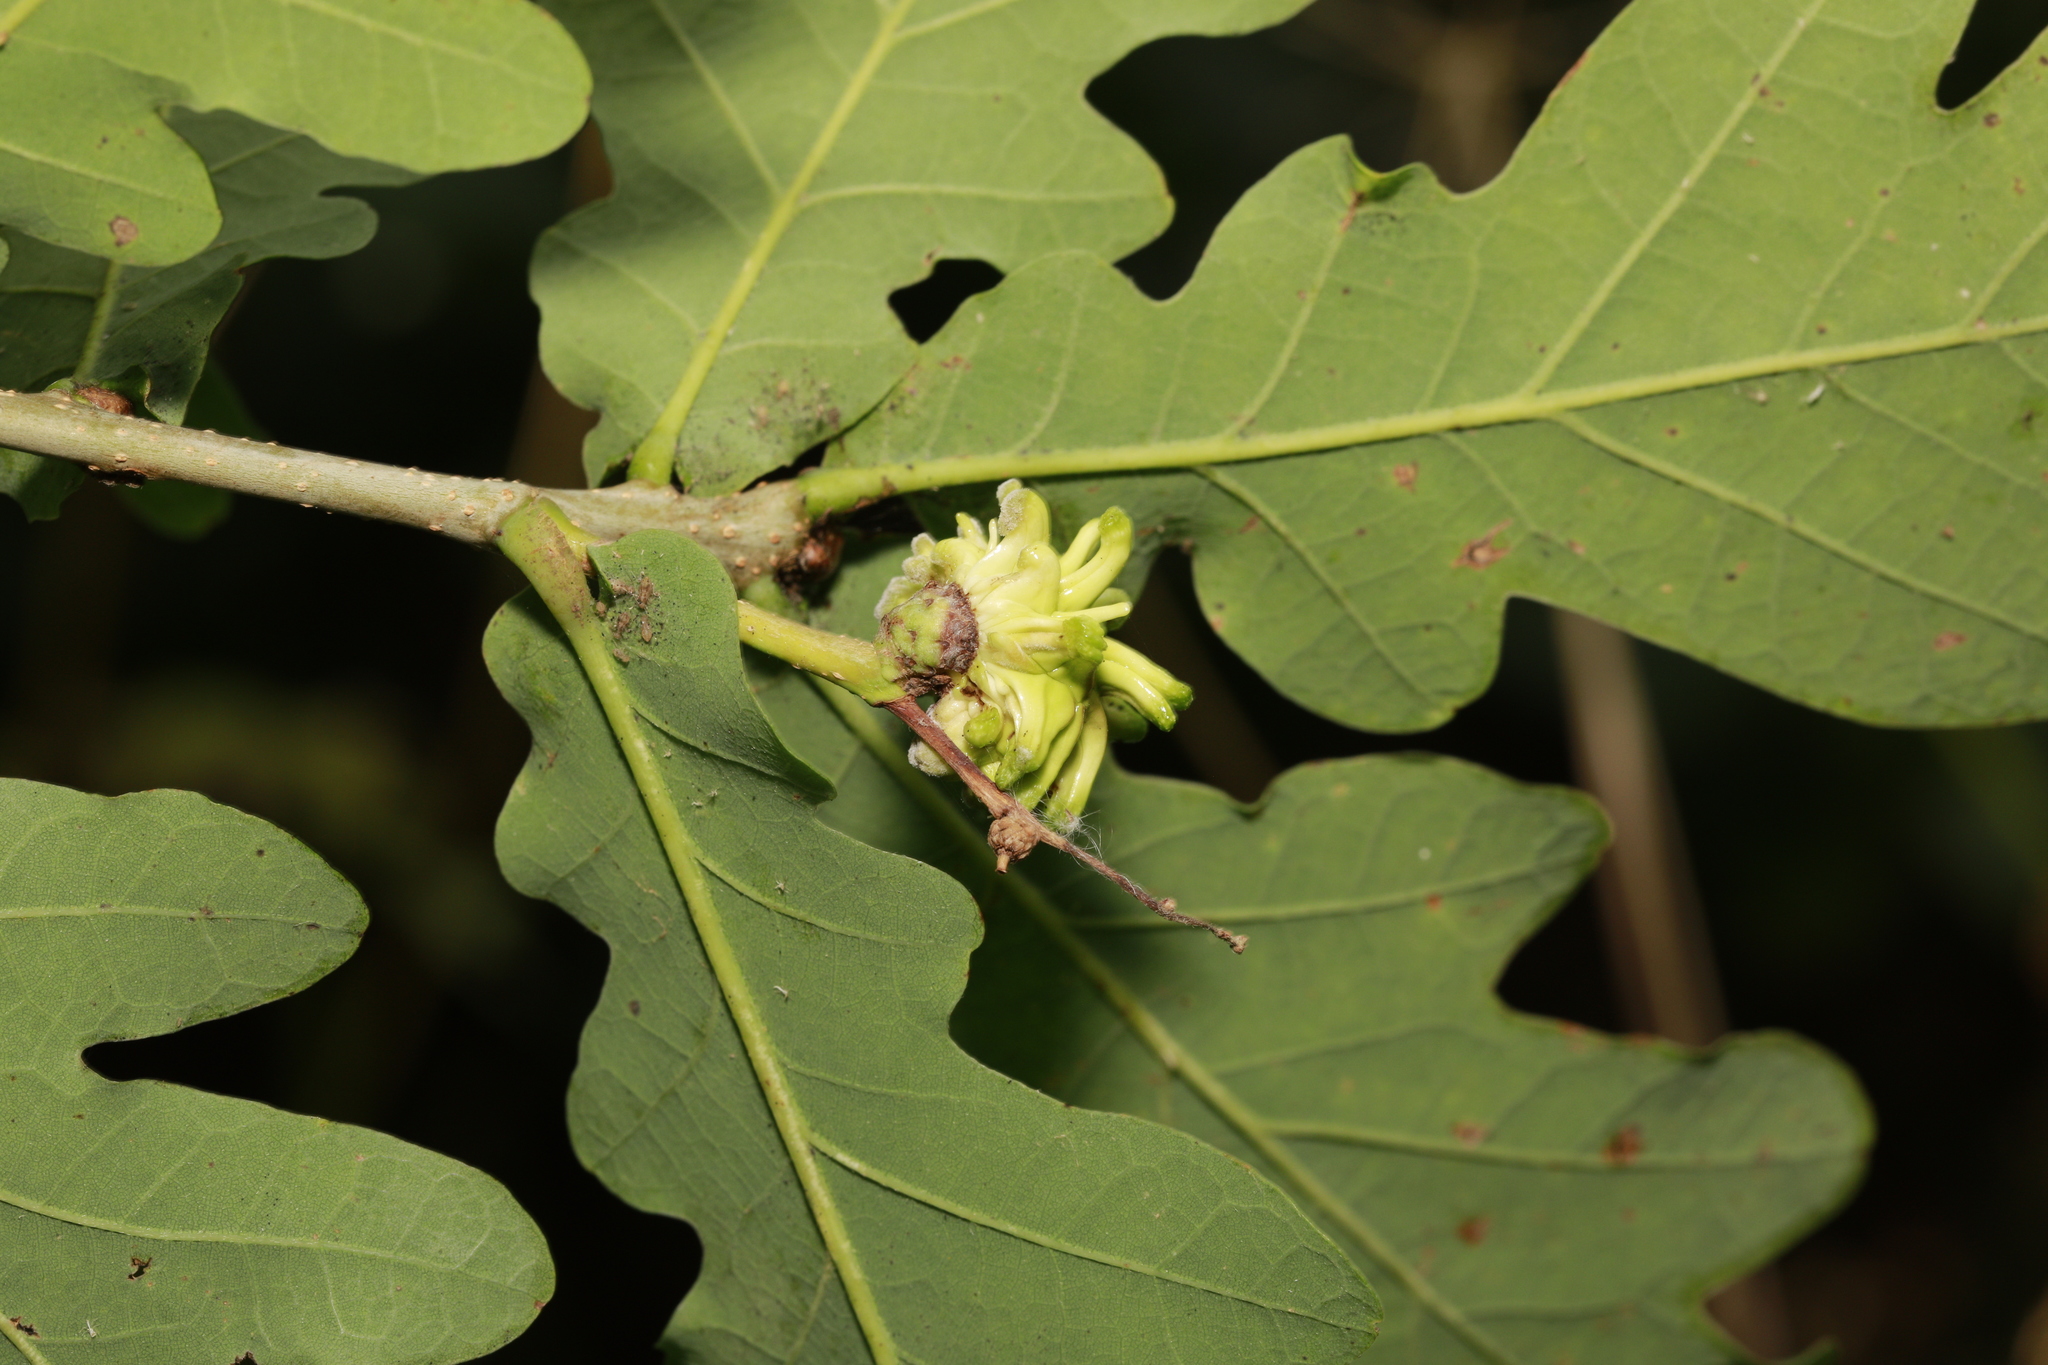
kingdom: Animalia
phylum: Arthropoda
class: Insecta
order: Hymenoptera
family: Cynipidae
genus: Andricus
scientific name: Andricus grossulariae
